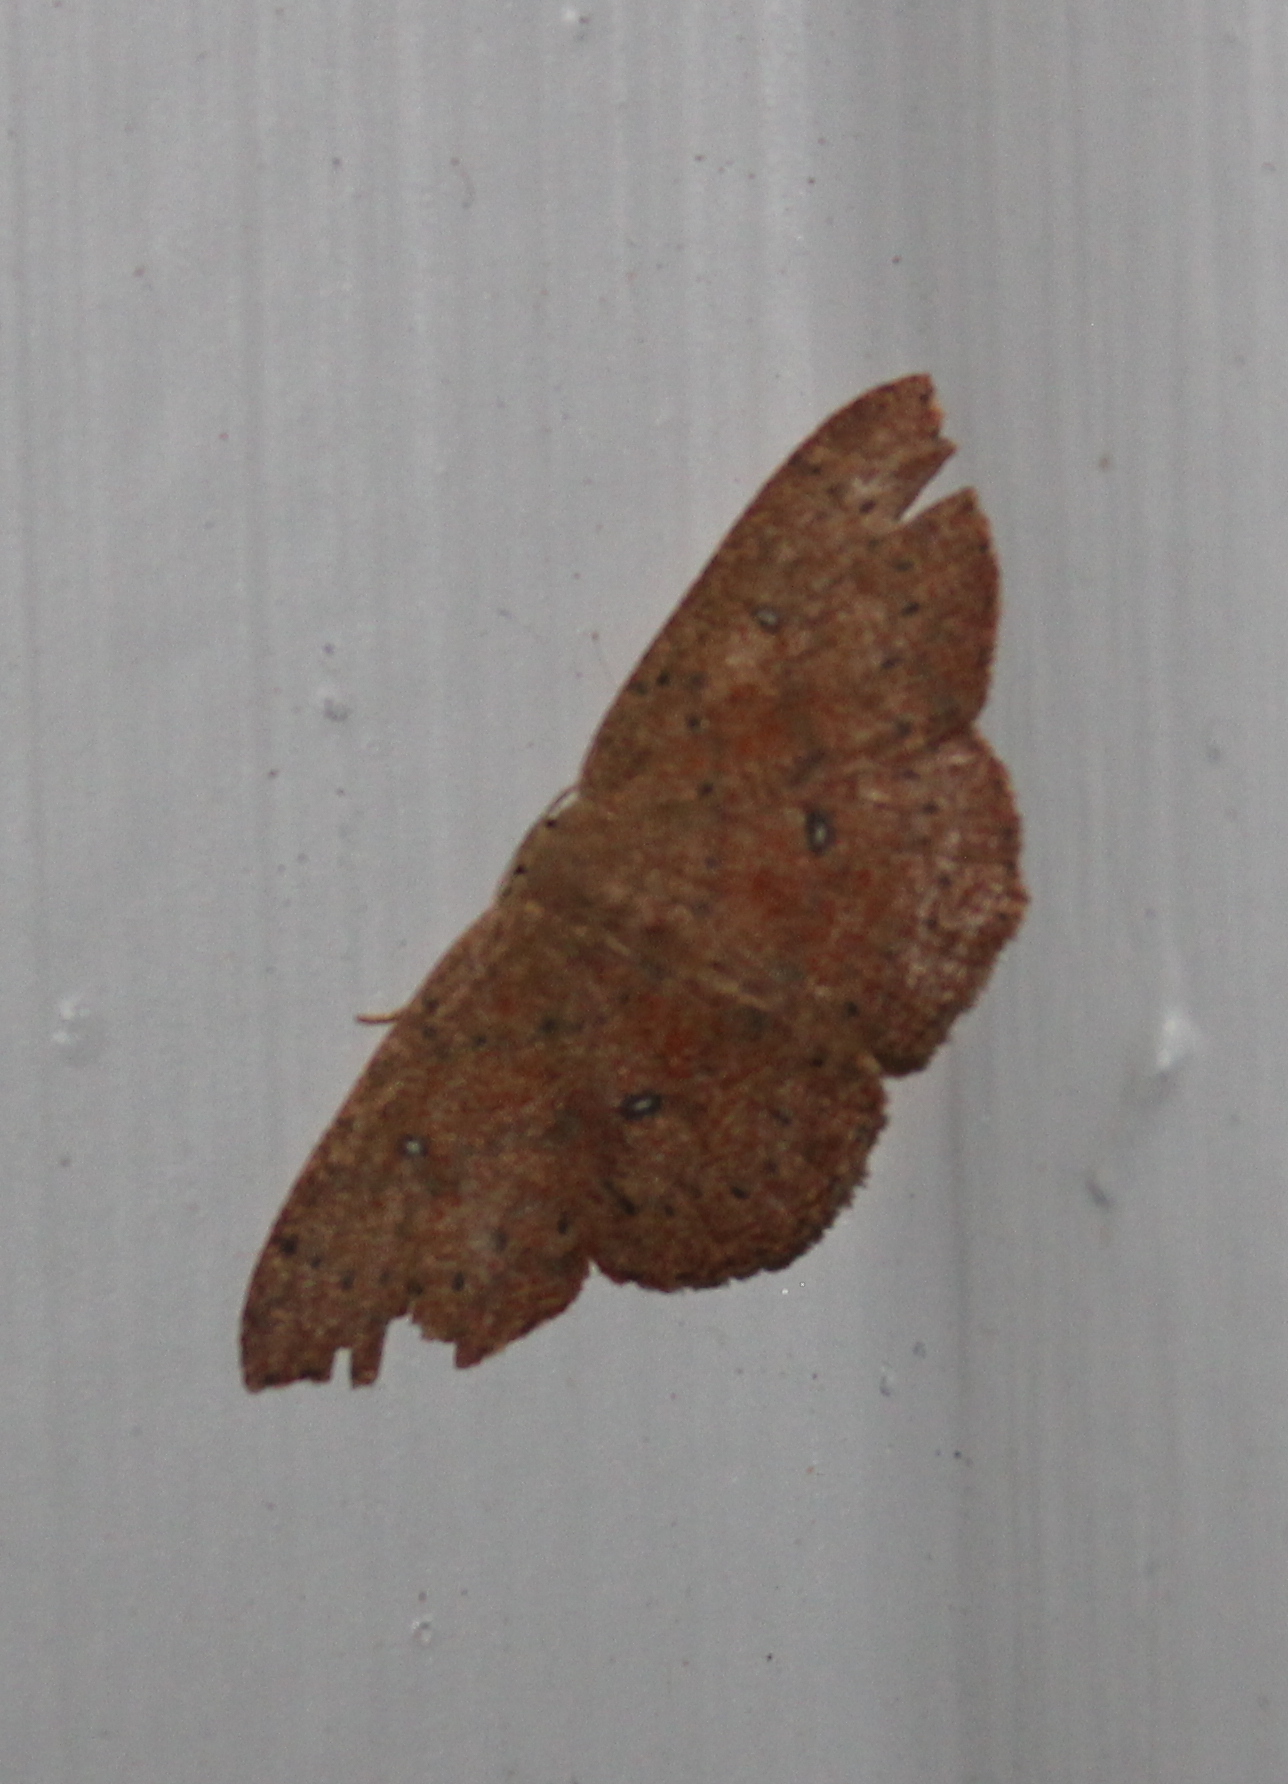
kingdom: Animalia
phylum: Arthropoda
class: Insecta
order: Lepidoptera
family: Geometridae
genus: Cyclophora
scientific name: Cyclophora packardi
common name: Packard's wave
